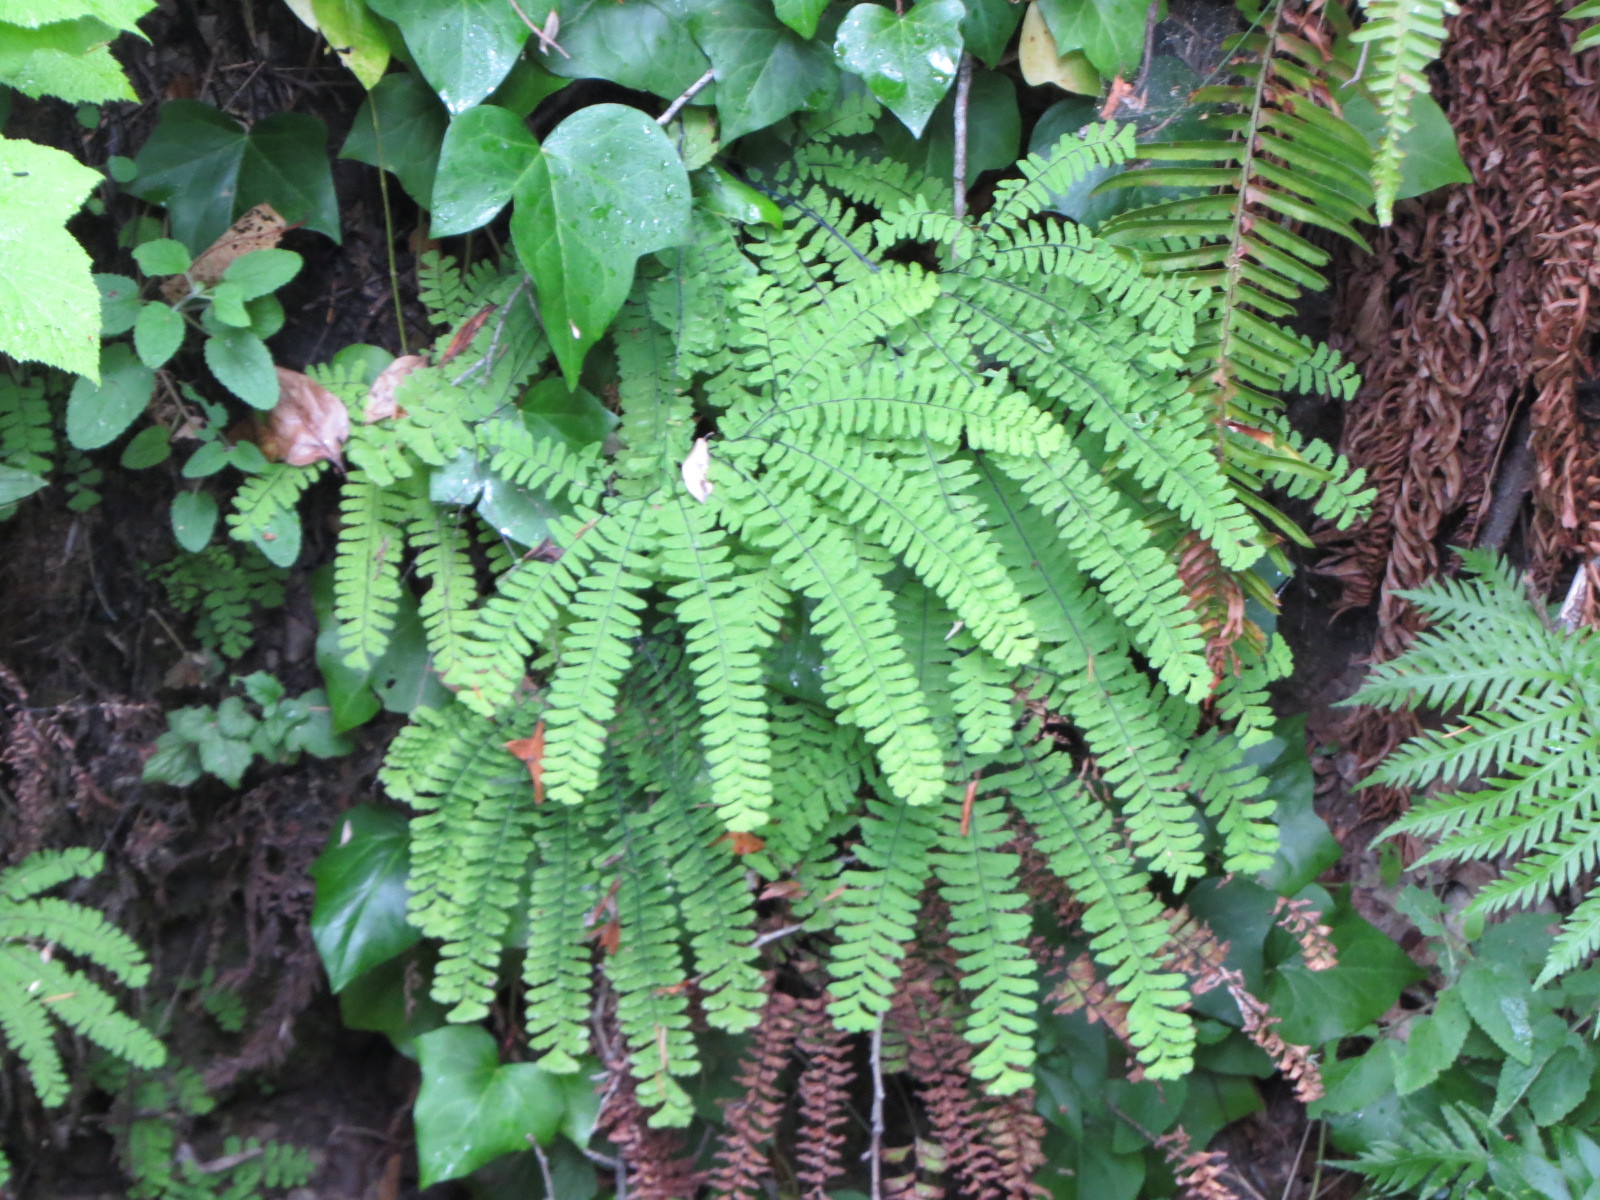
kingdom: Plantae
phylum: Tracheophyta
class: Polypodiopsida
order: Polypodiales
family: Pteridaceae
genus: Adiantum
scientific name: Adiantum aleuticum
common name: Aleutian maidenhair fern
